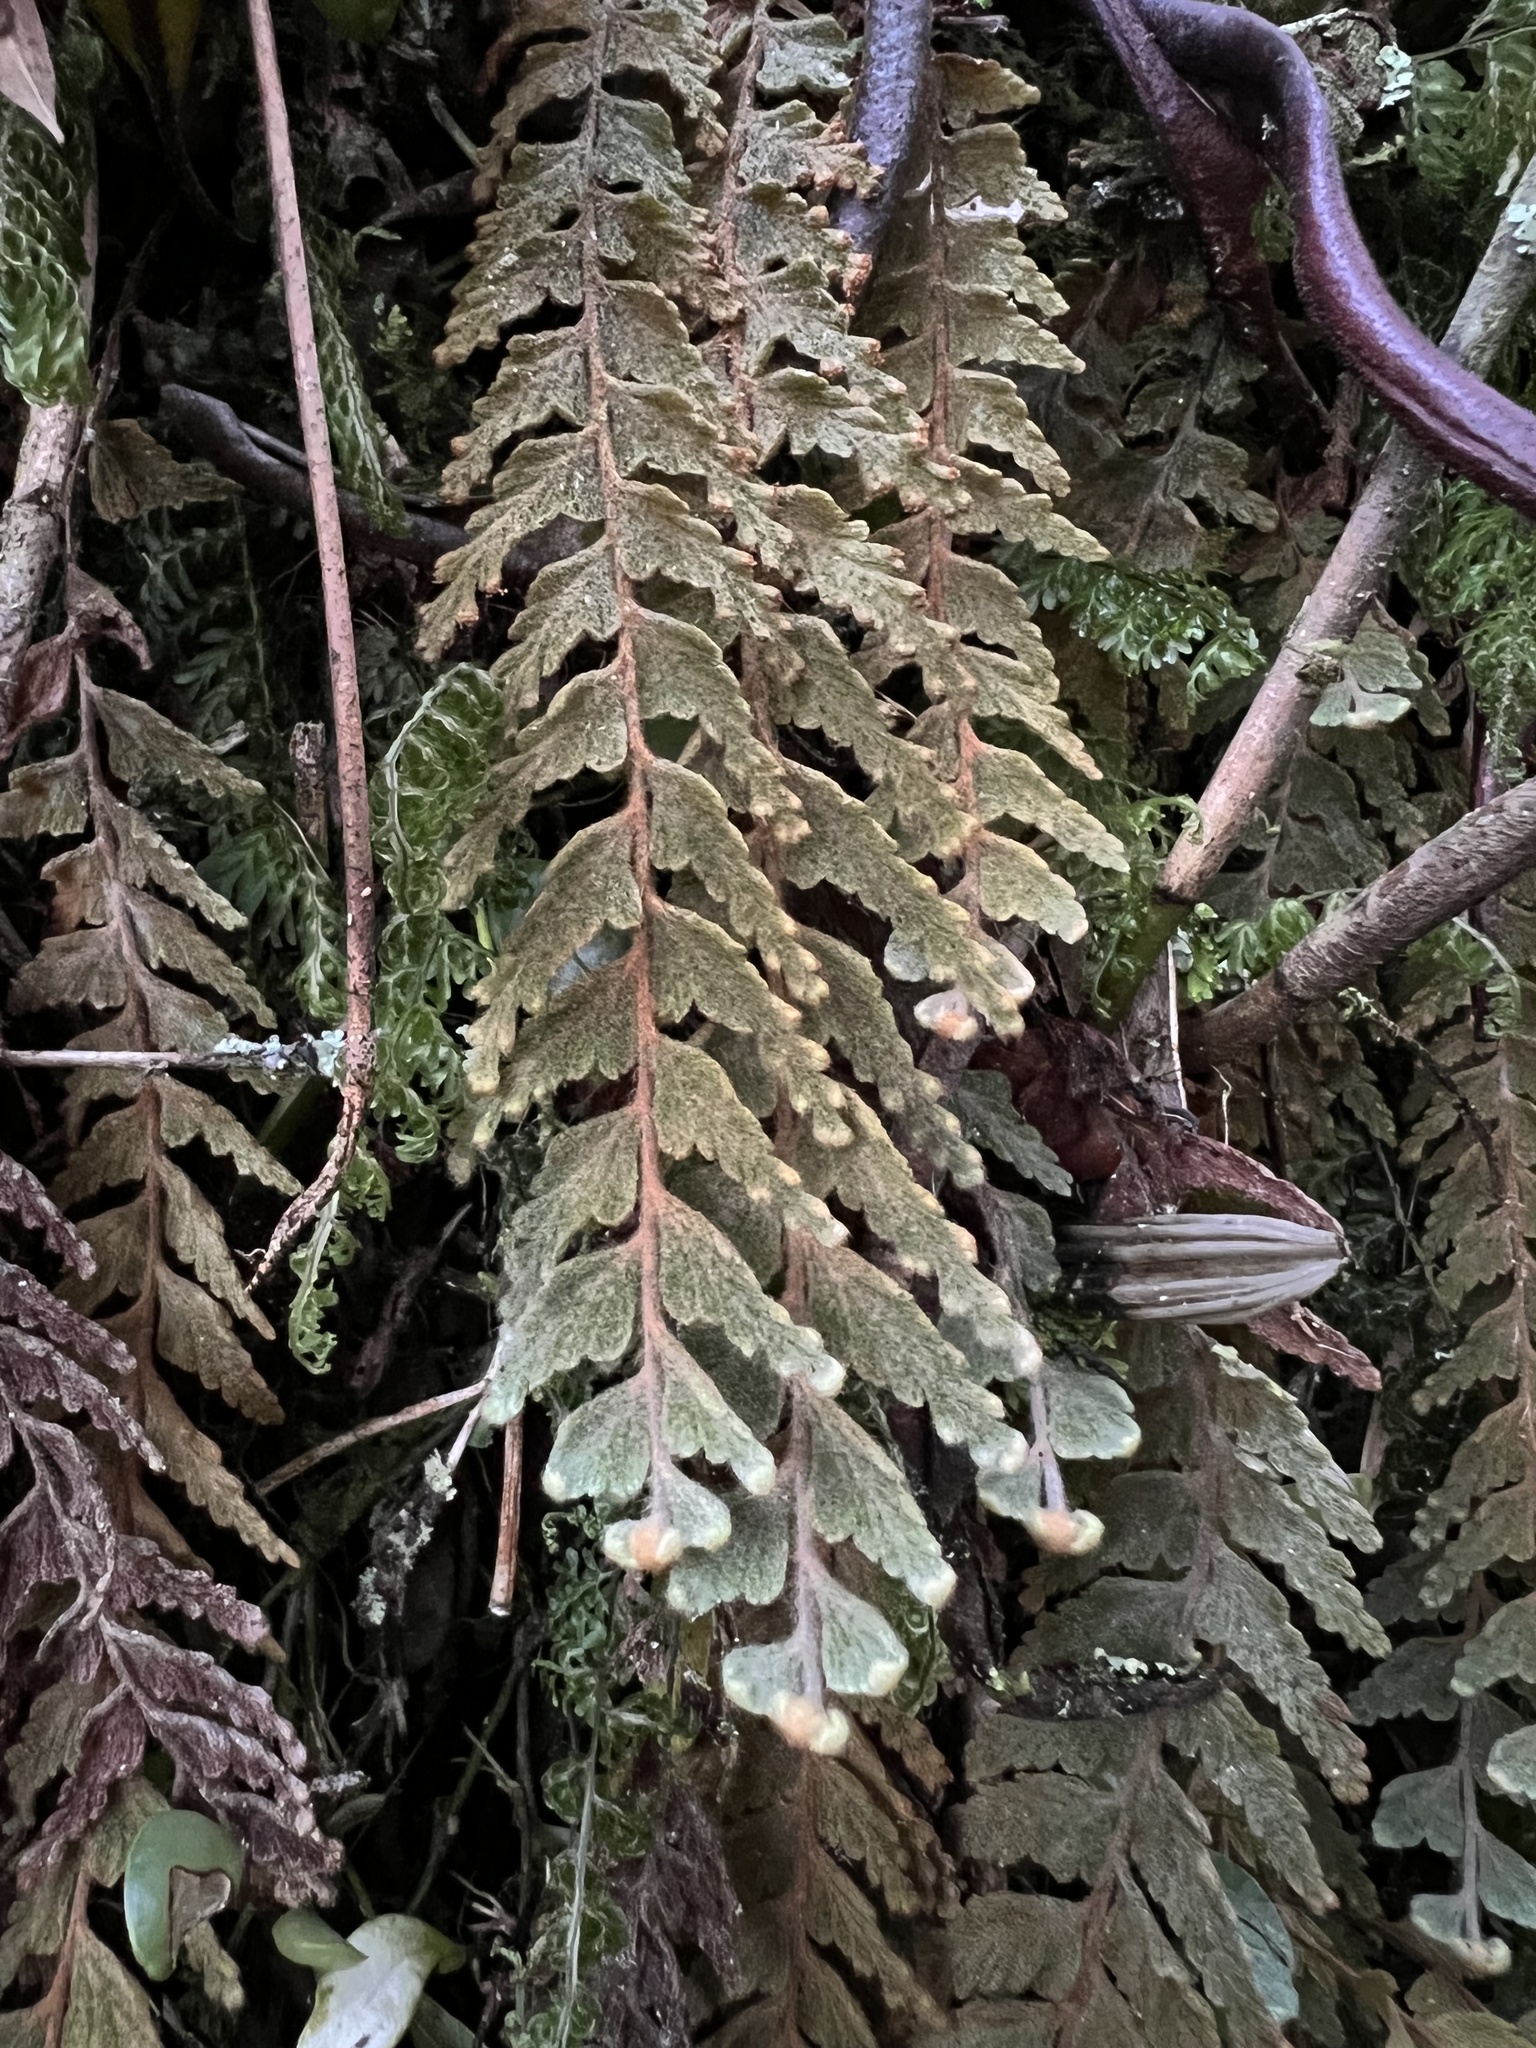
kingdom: Plantae
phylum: Tracheophyta
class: Polypodiopsida
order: Hymenophyllales
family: Hymenophyllaceae
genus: Hymenophyllum
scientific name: Hymenophyllum tomentosum
